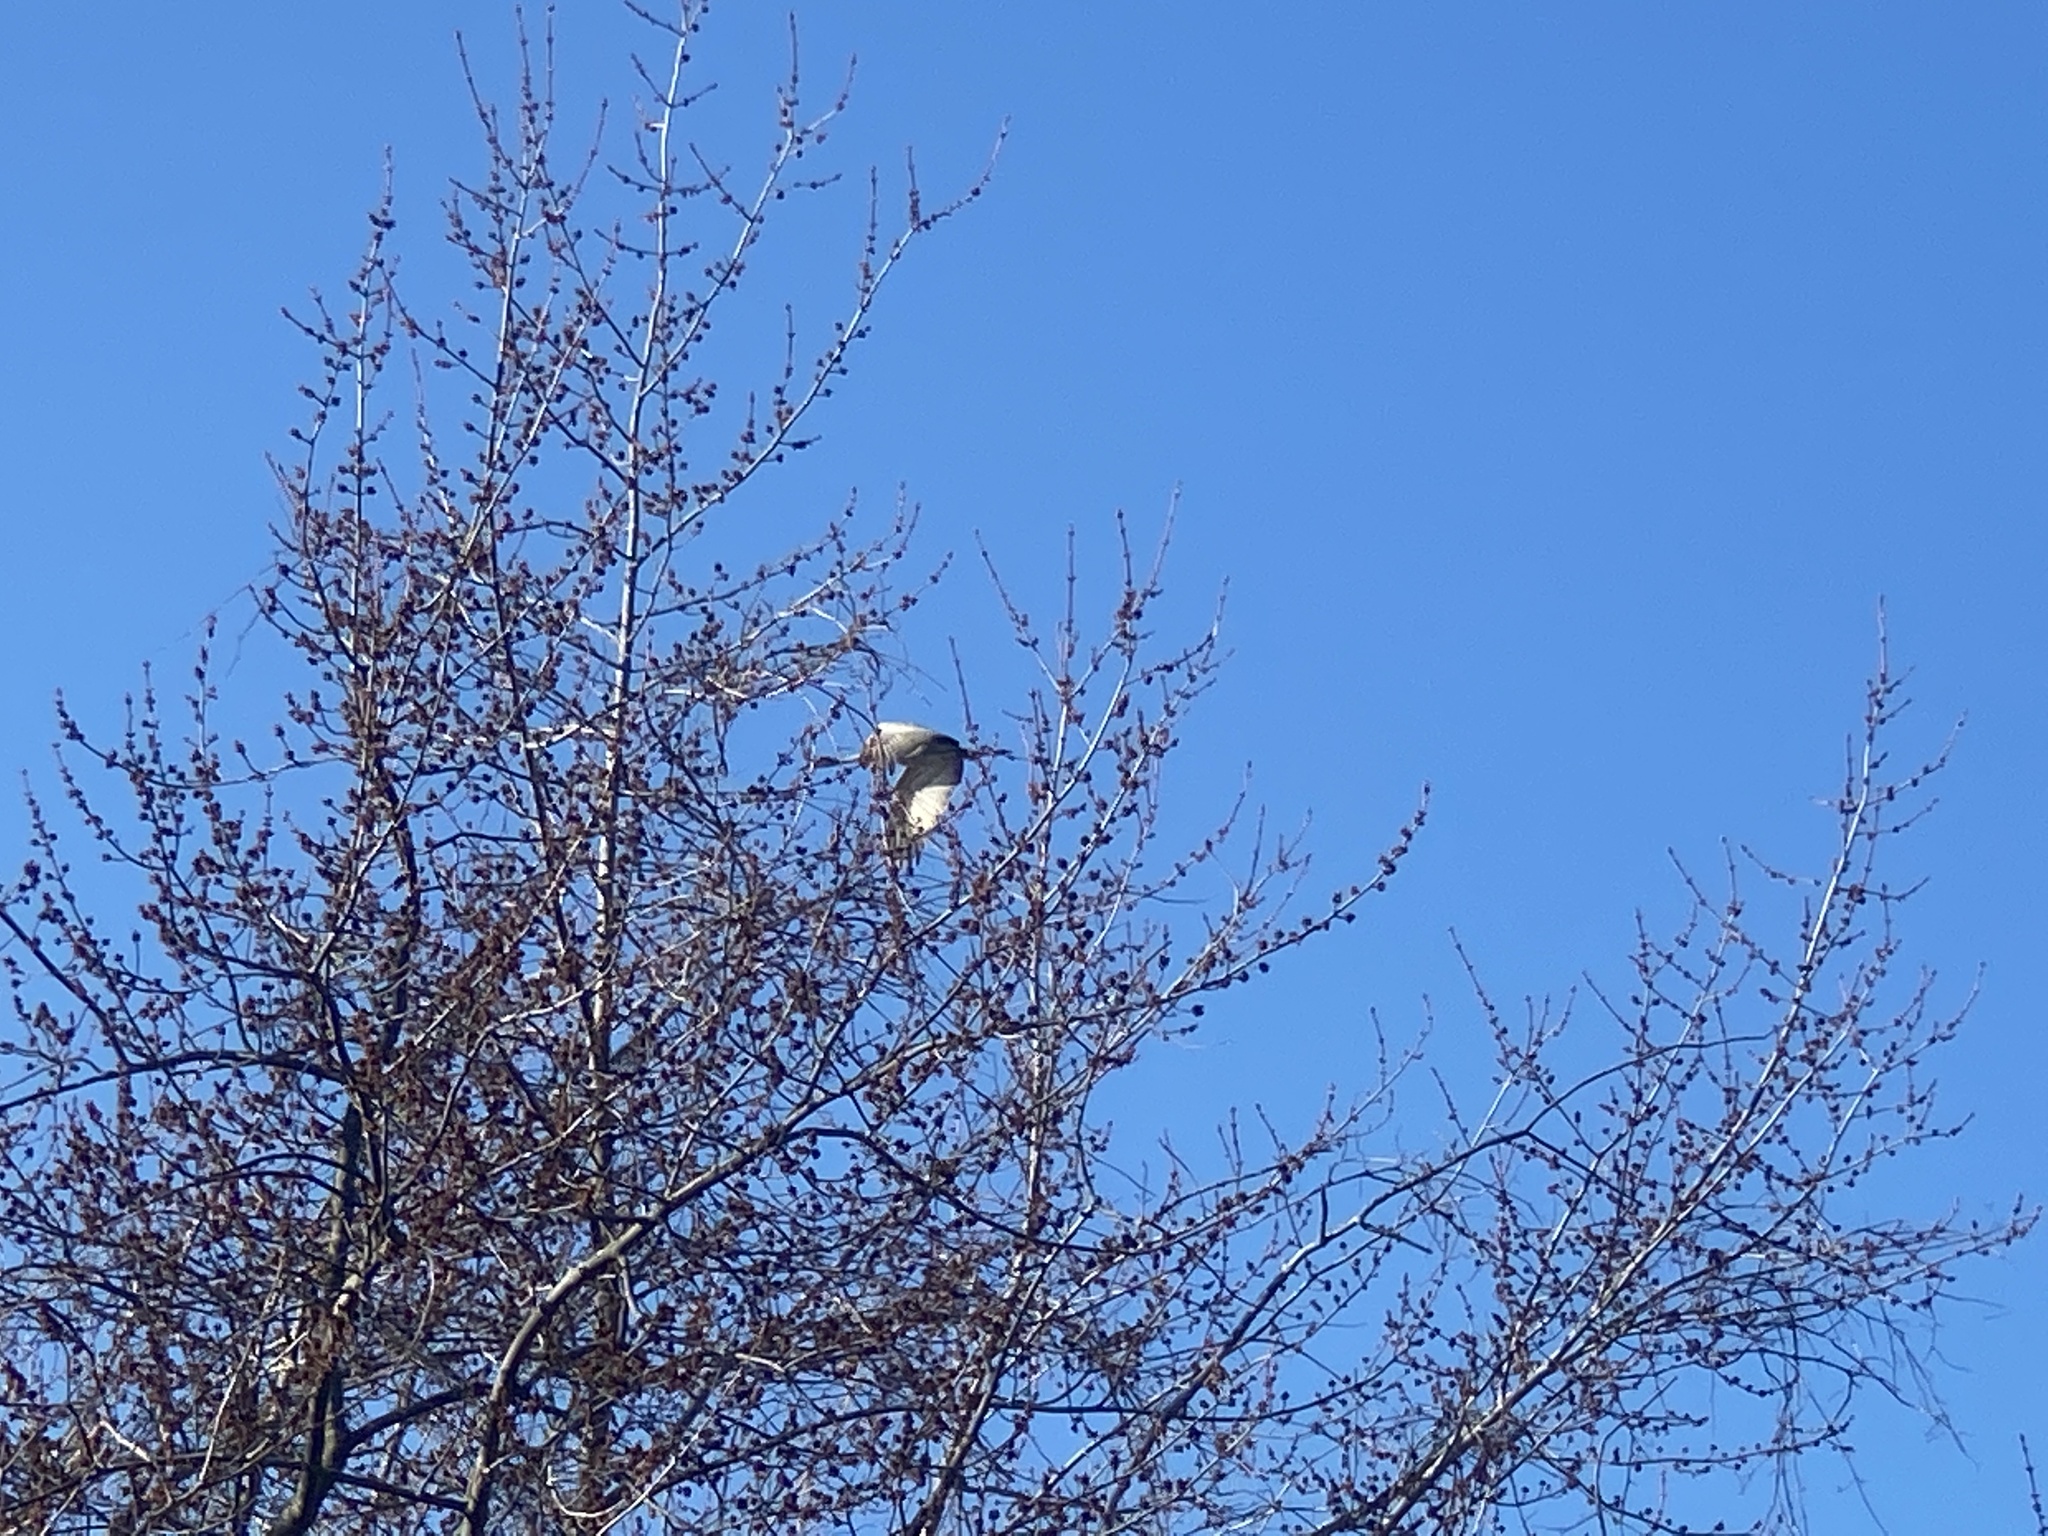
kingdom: Animalia
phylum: Chordata
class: Aves
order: Gruiformes
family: Gruidae
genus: Grus
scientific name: Grus canadensis
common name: Sandhill crane
